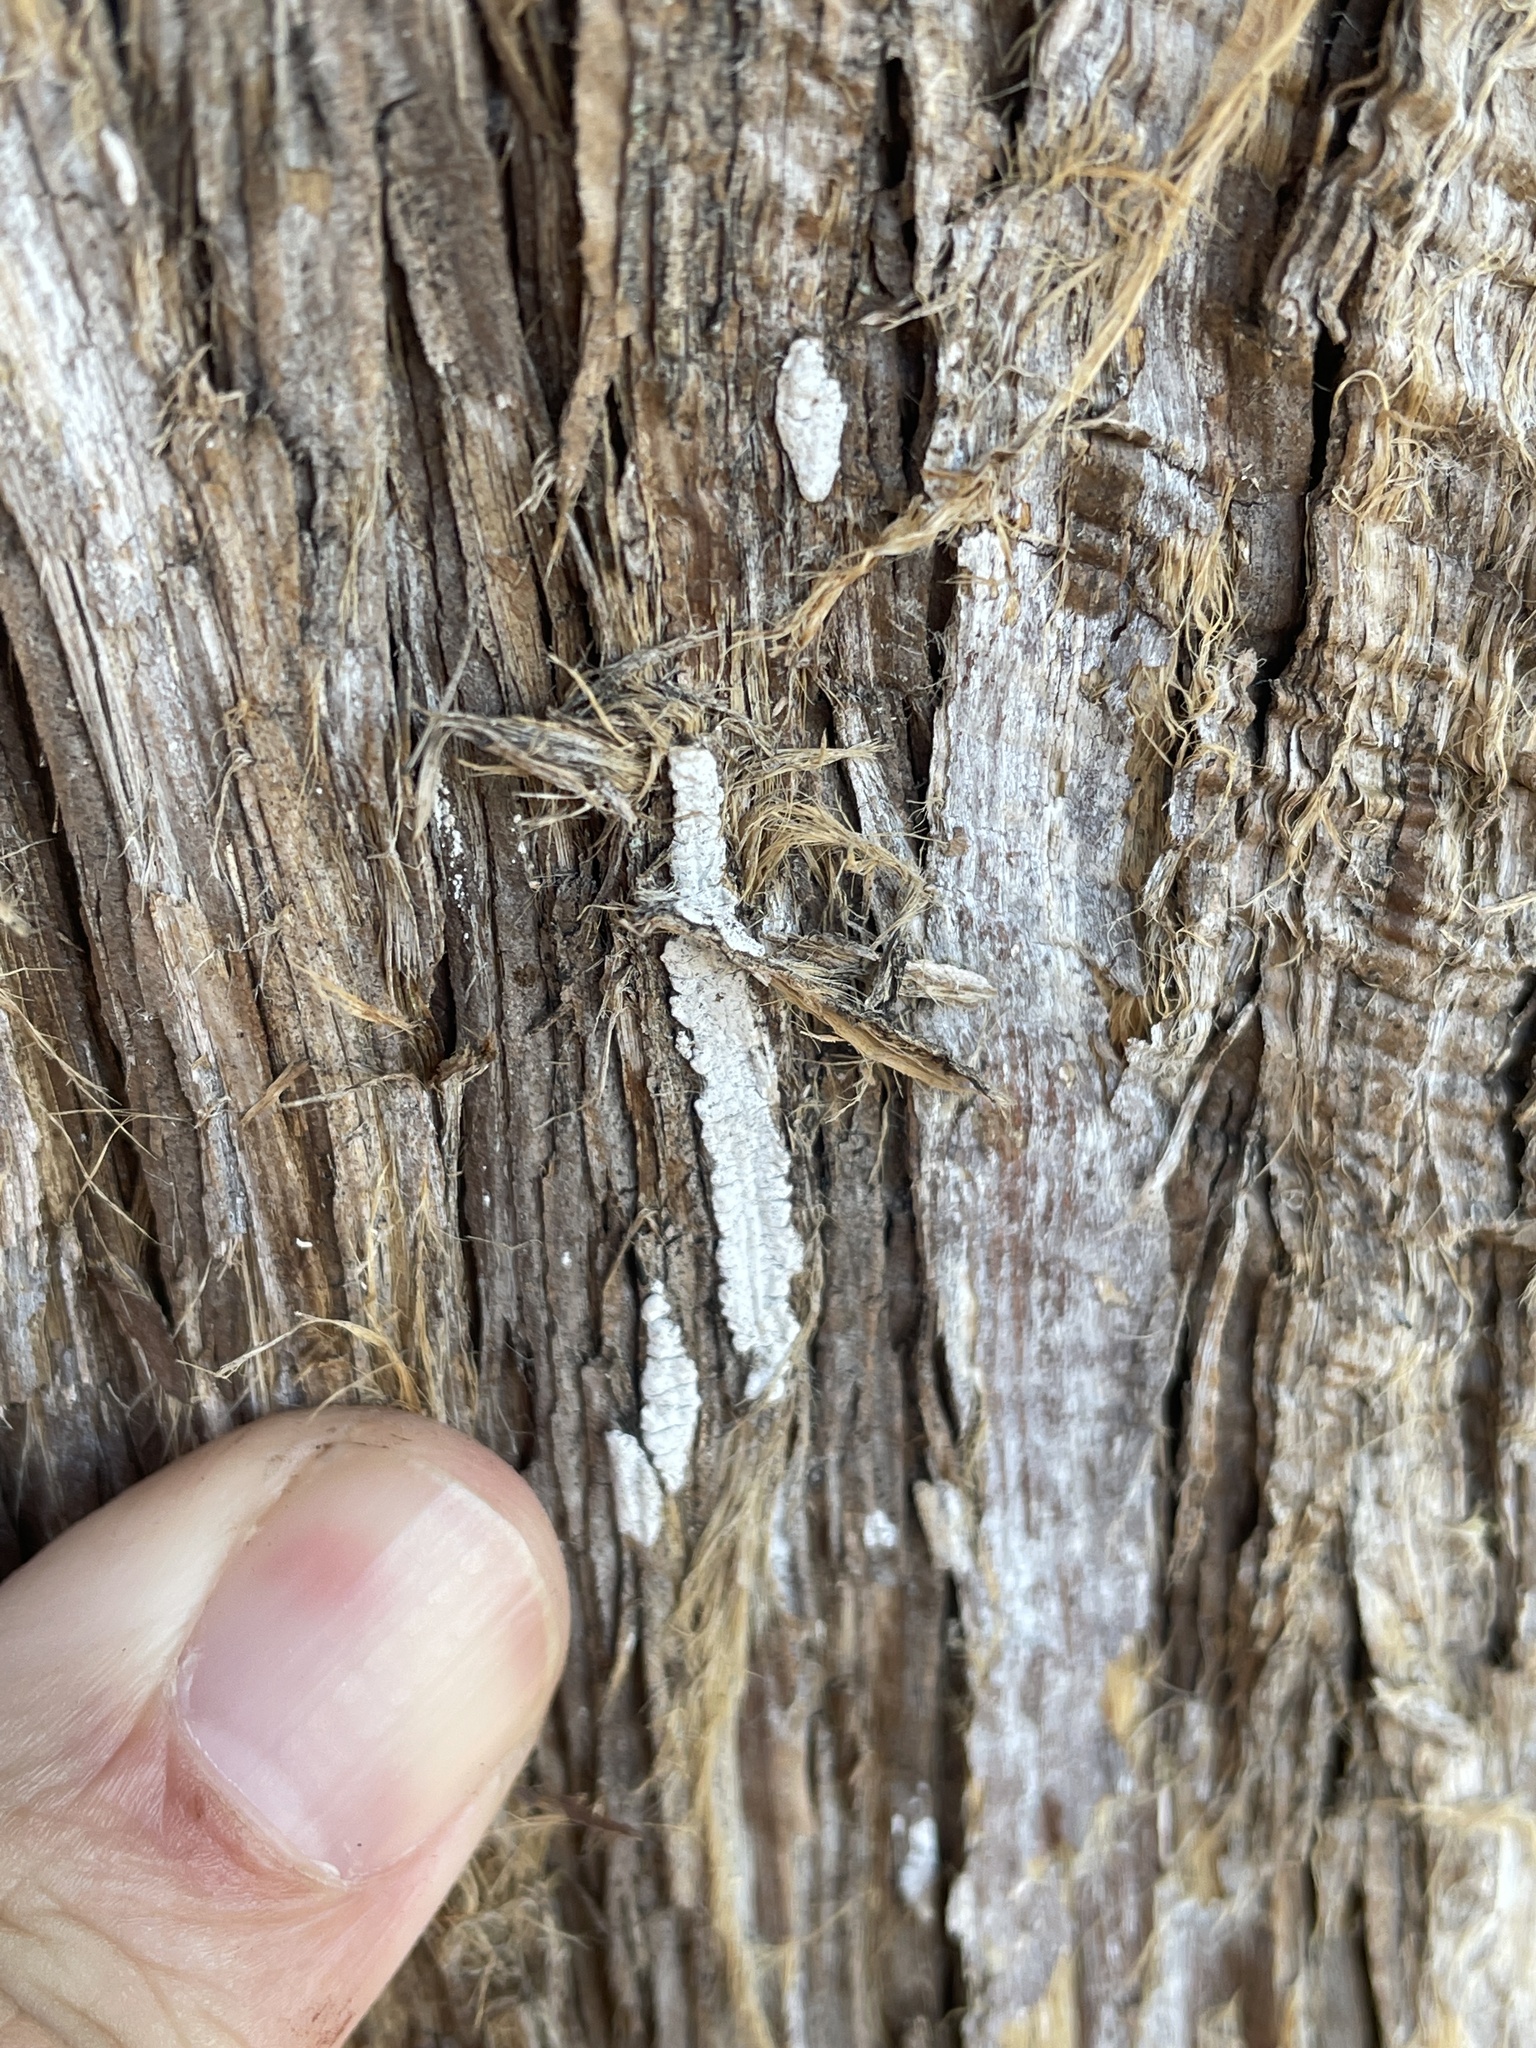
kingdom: Fungi
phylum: Basidiomycota
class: Agaricomycetes
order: Agaricales
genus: Dendrothele
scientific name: Dendrothele nivosa
